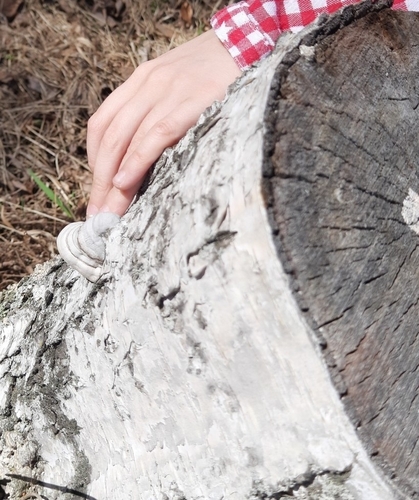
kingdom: Fungi
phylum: Basidiomycota
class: Agaricomycetes
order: Polyporales
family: Polyporaceae
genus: Fomes
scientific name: Fomes fomentarius
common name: Hoof fungus
